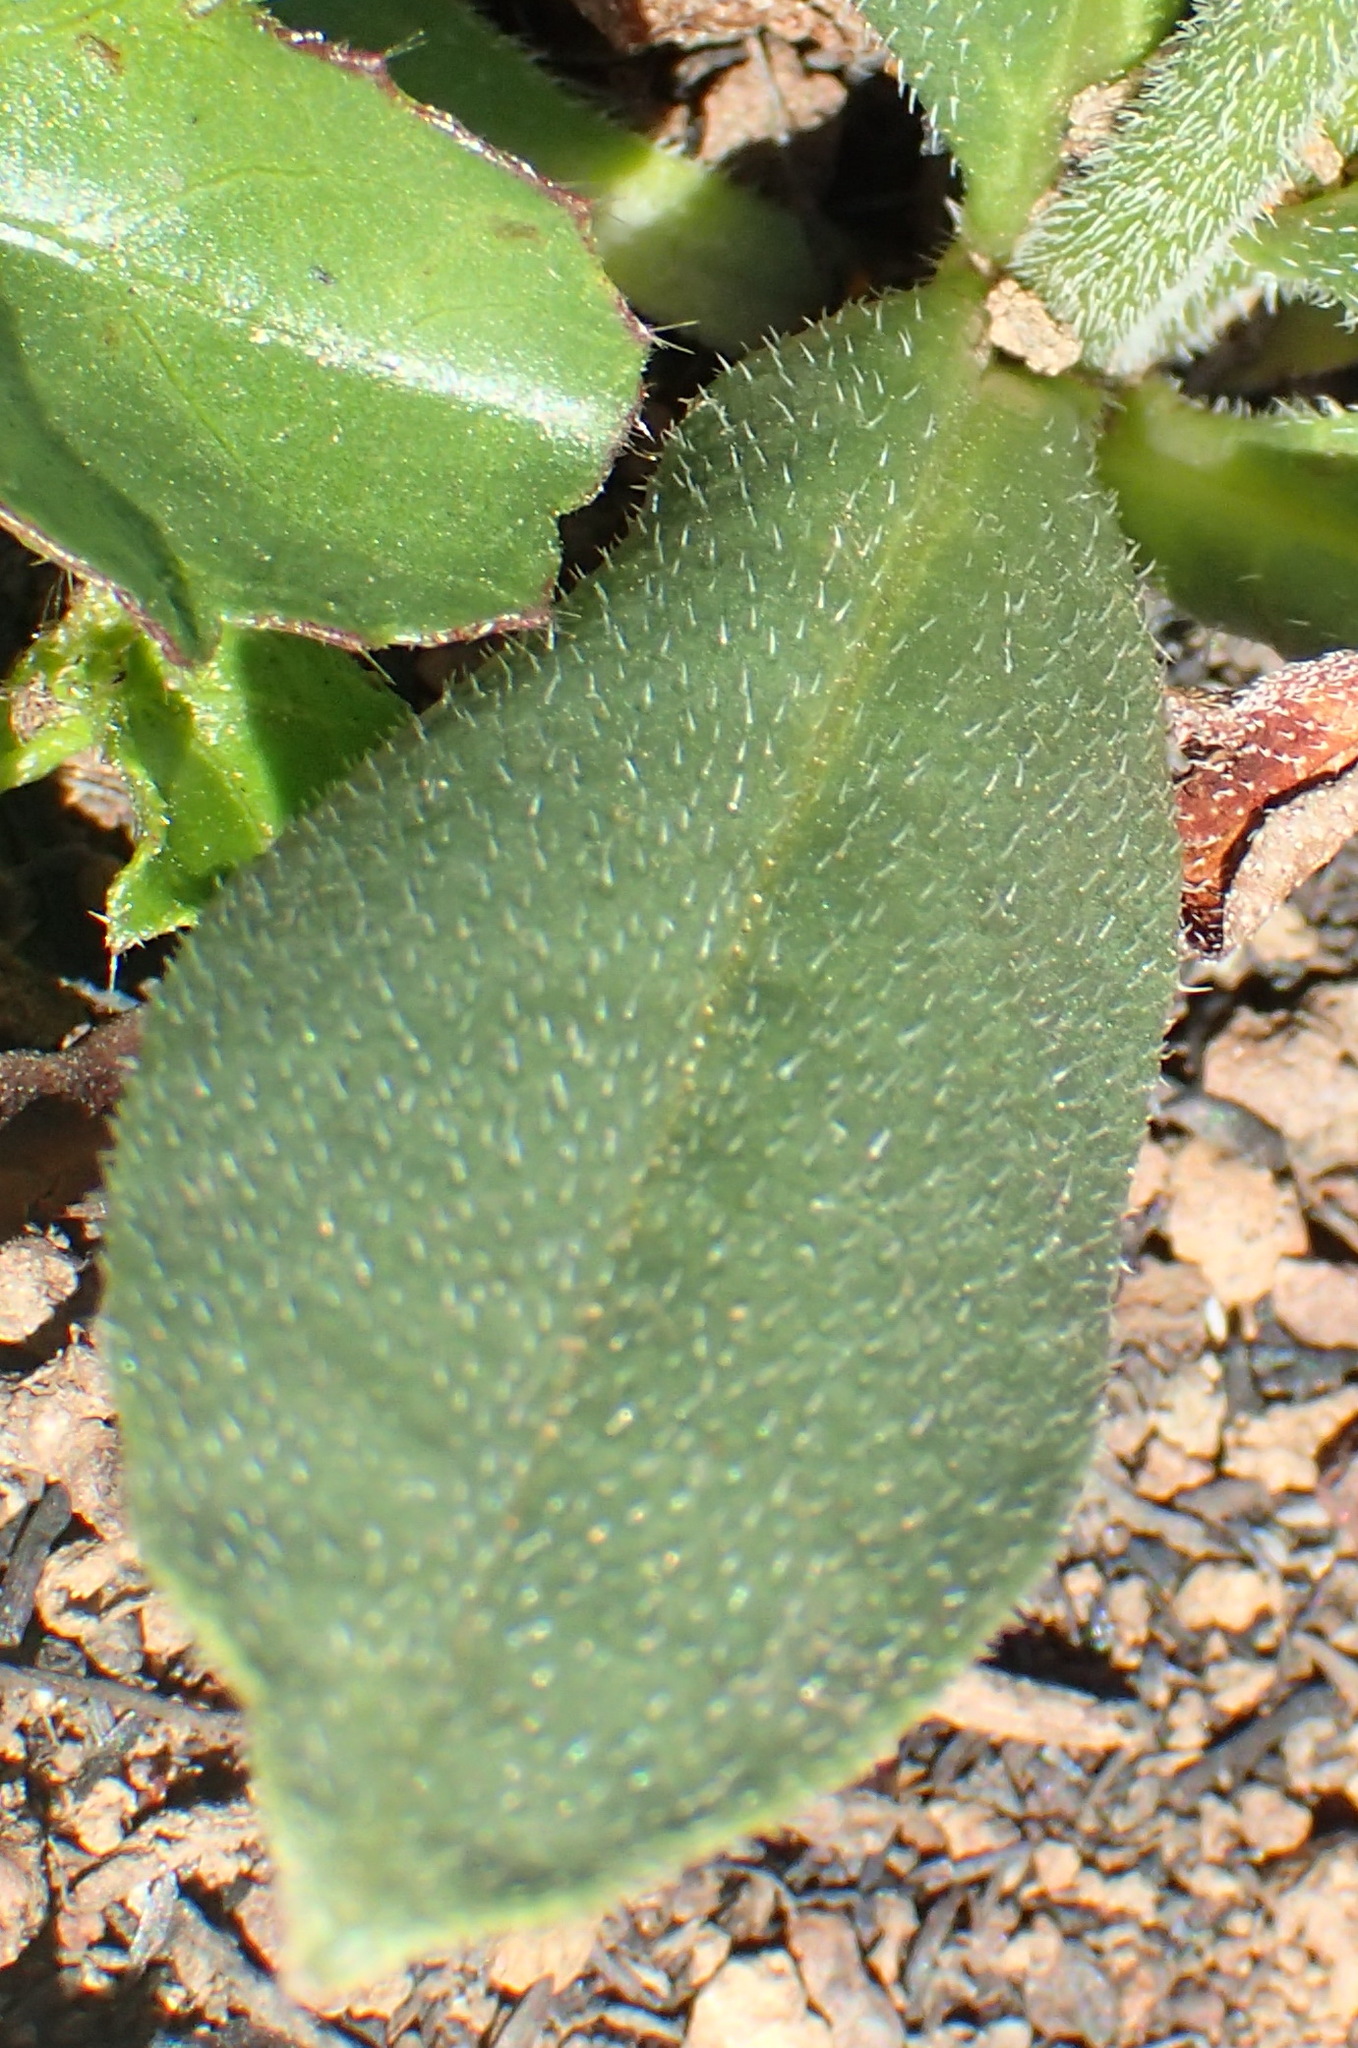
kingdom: Plantae
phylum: Tracheophyta
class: Magnoliopsida
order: Boraginales
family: Boraginaceae
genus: Cynoglossum
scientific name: Cynoglossum hispidum
